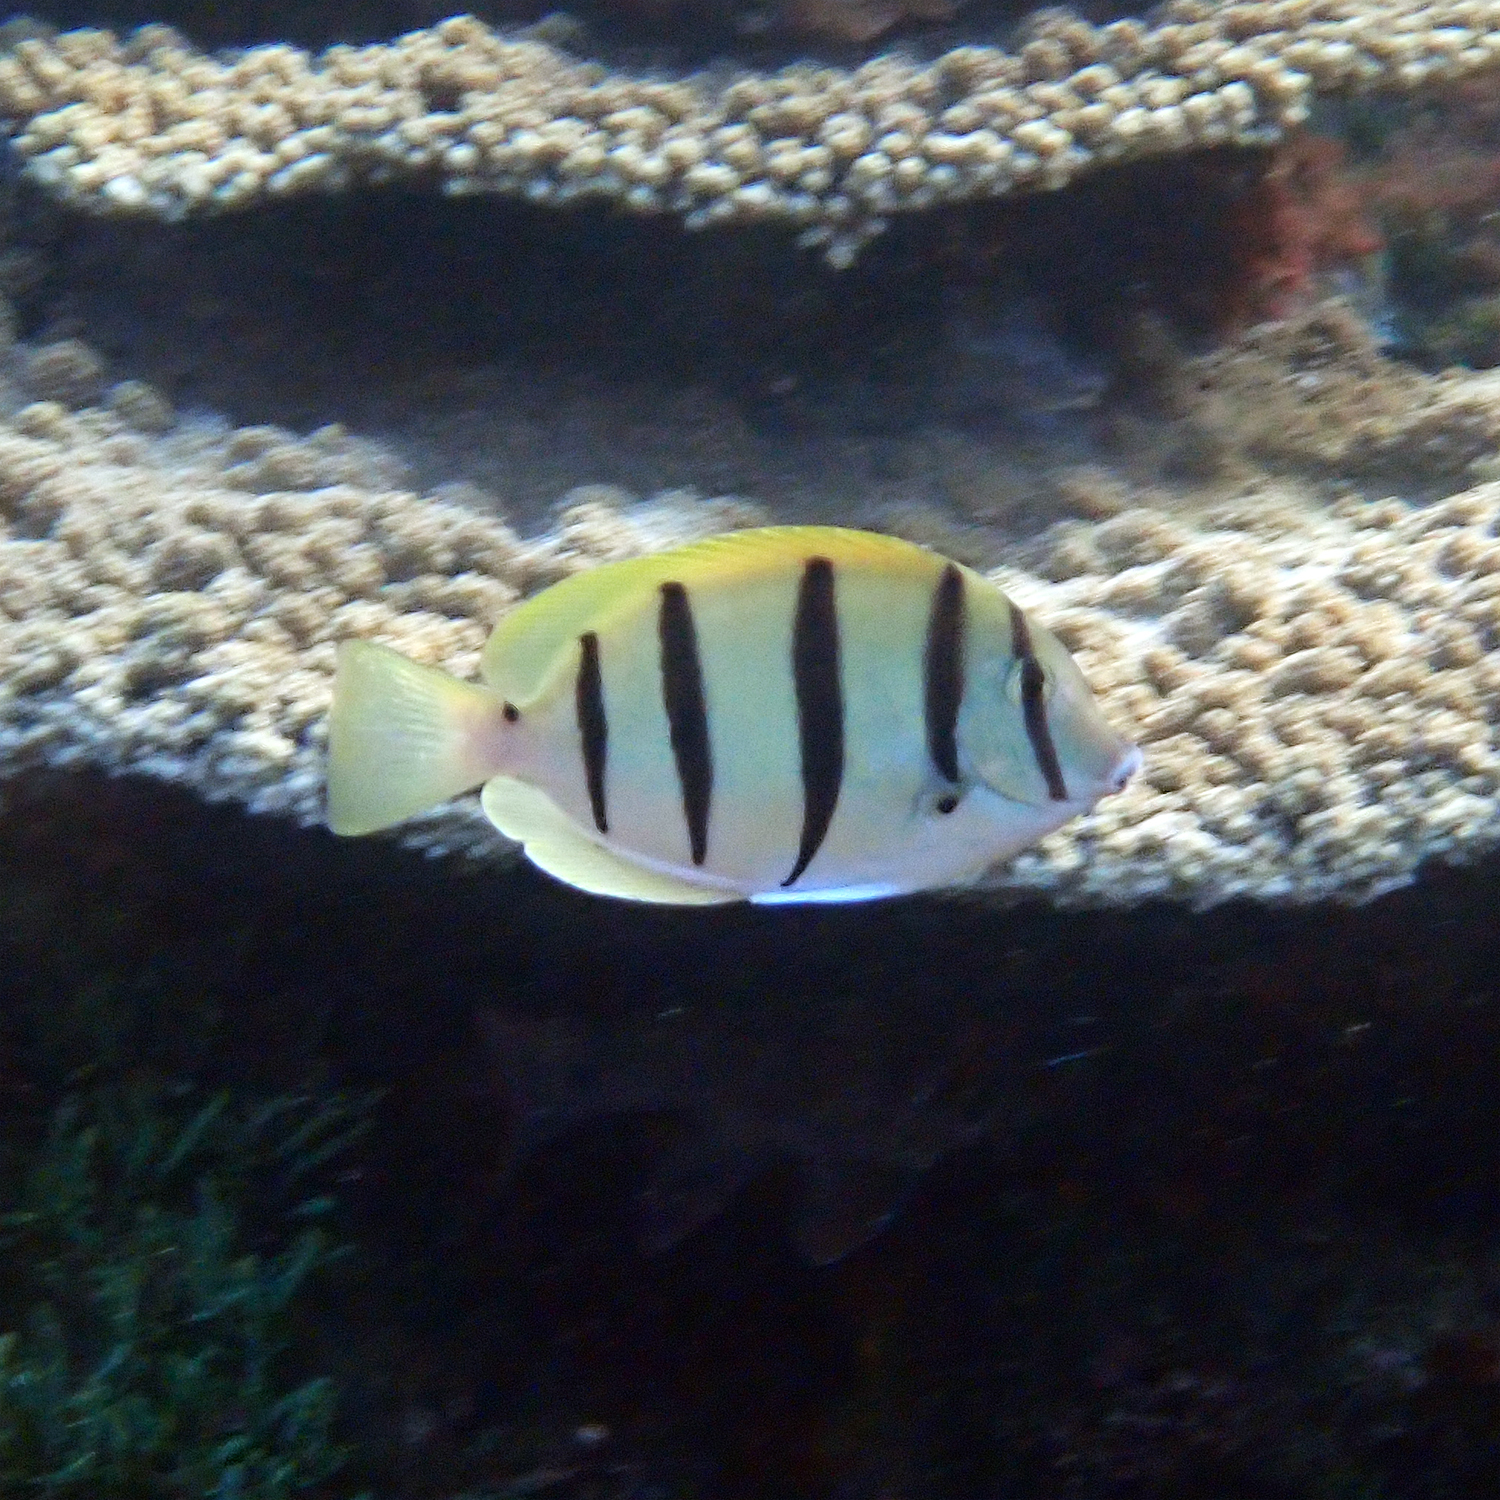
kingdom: Animalia
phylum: Chordata
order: Perciformes
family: Acanthuridae
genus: Acanthurus
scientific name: Acanthurus triostegus
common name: Convict surgeonfish
